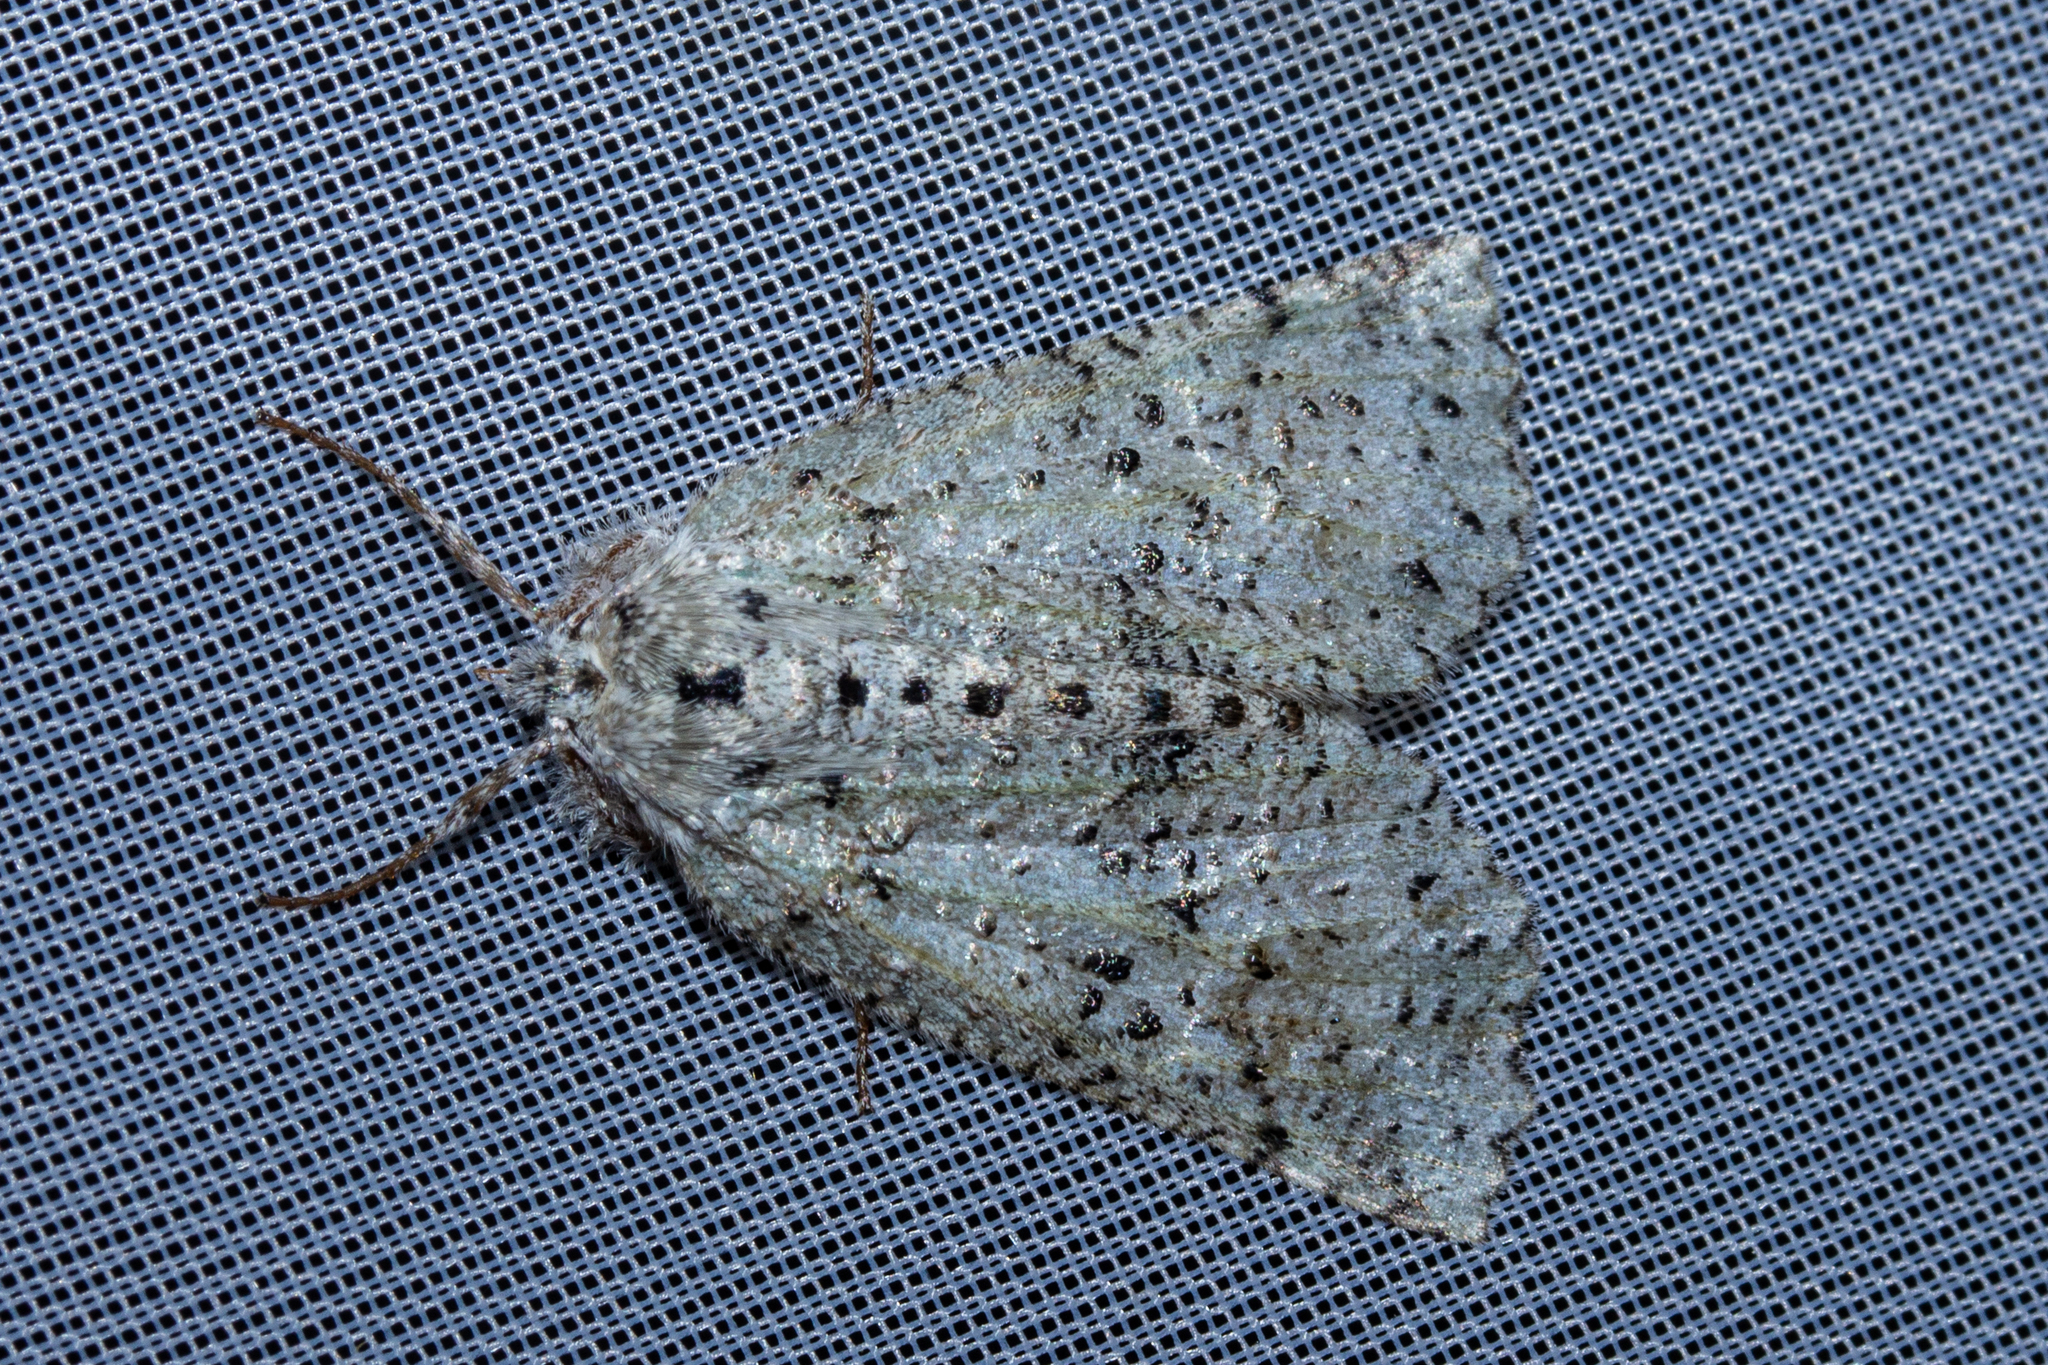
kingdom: Animalia
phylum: Arthropoda
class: Insecta
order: Lepidoptera
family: Geometridae
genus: Declana
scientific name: Declana floccosa
